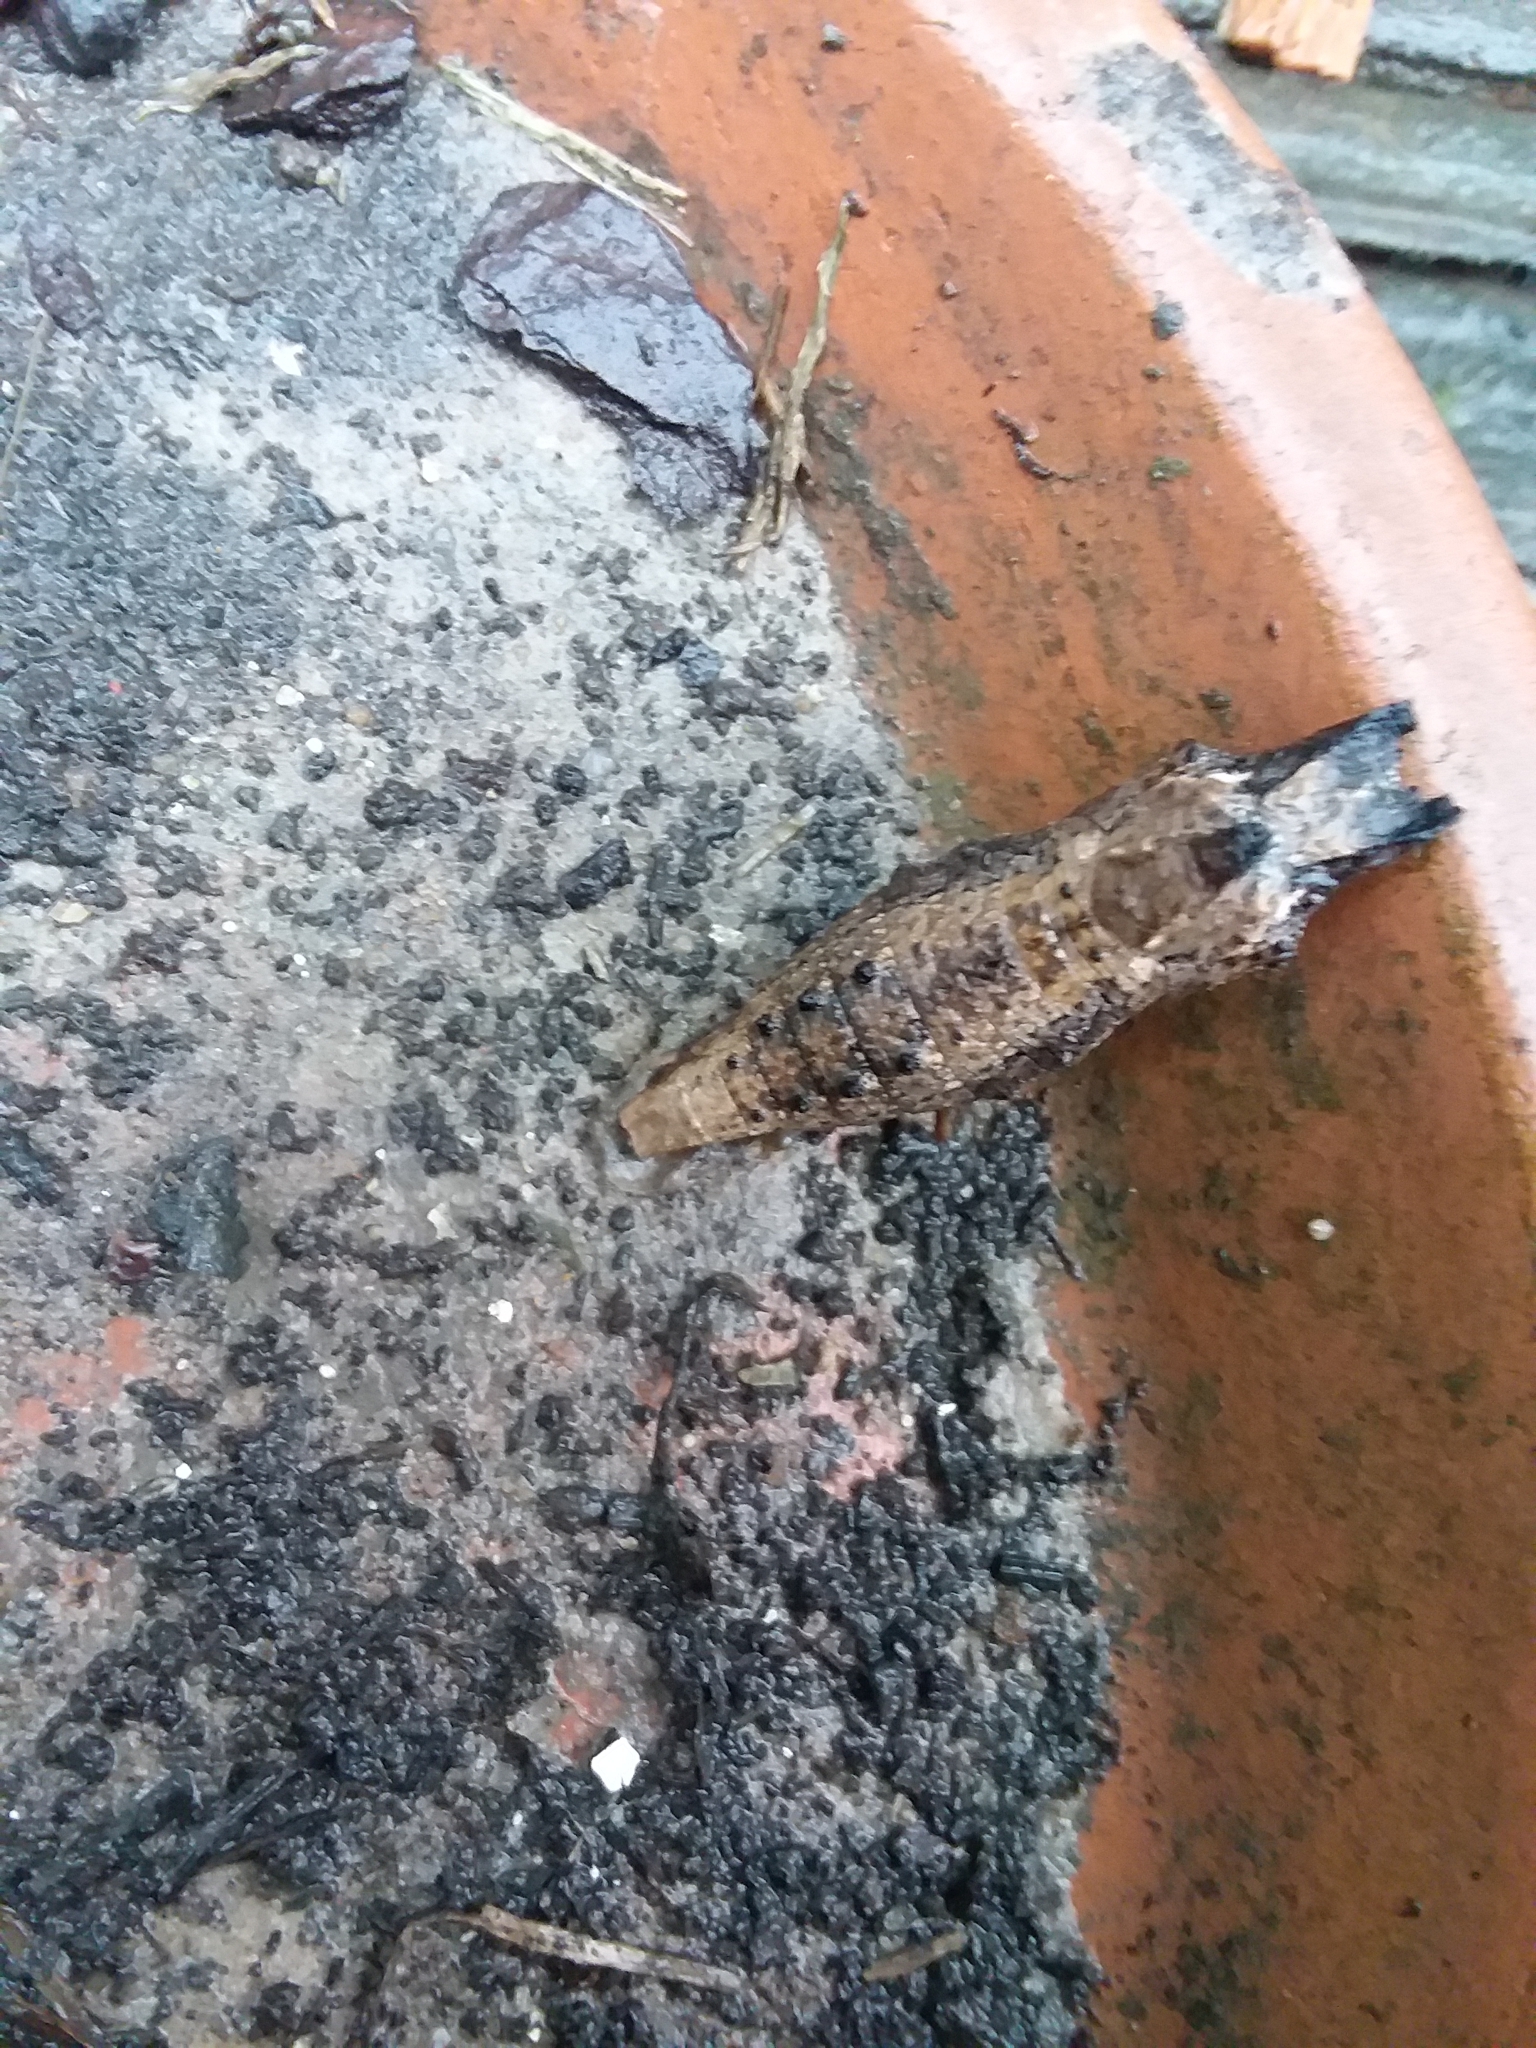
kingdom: Animalia
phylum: Arthropoda
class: Insecta
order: Lepidoptera
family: Papilionidae
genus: Papilio
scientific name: Papilio polyxenes
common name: Black swallowtail
